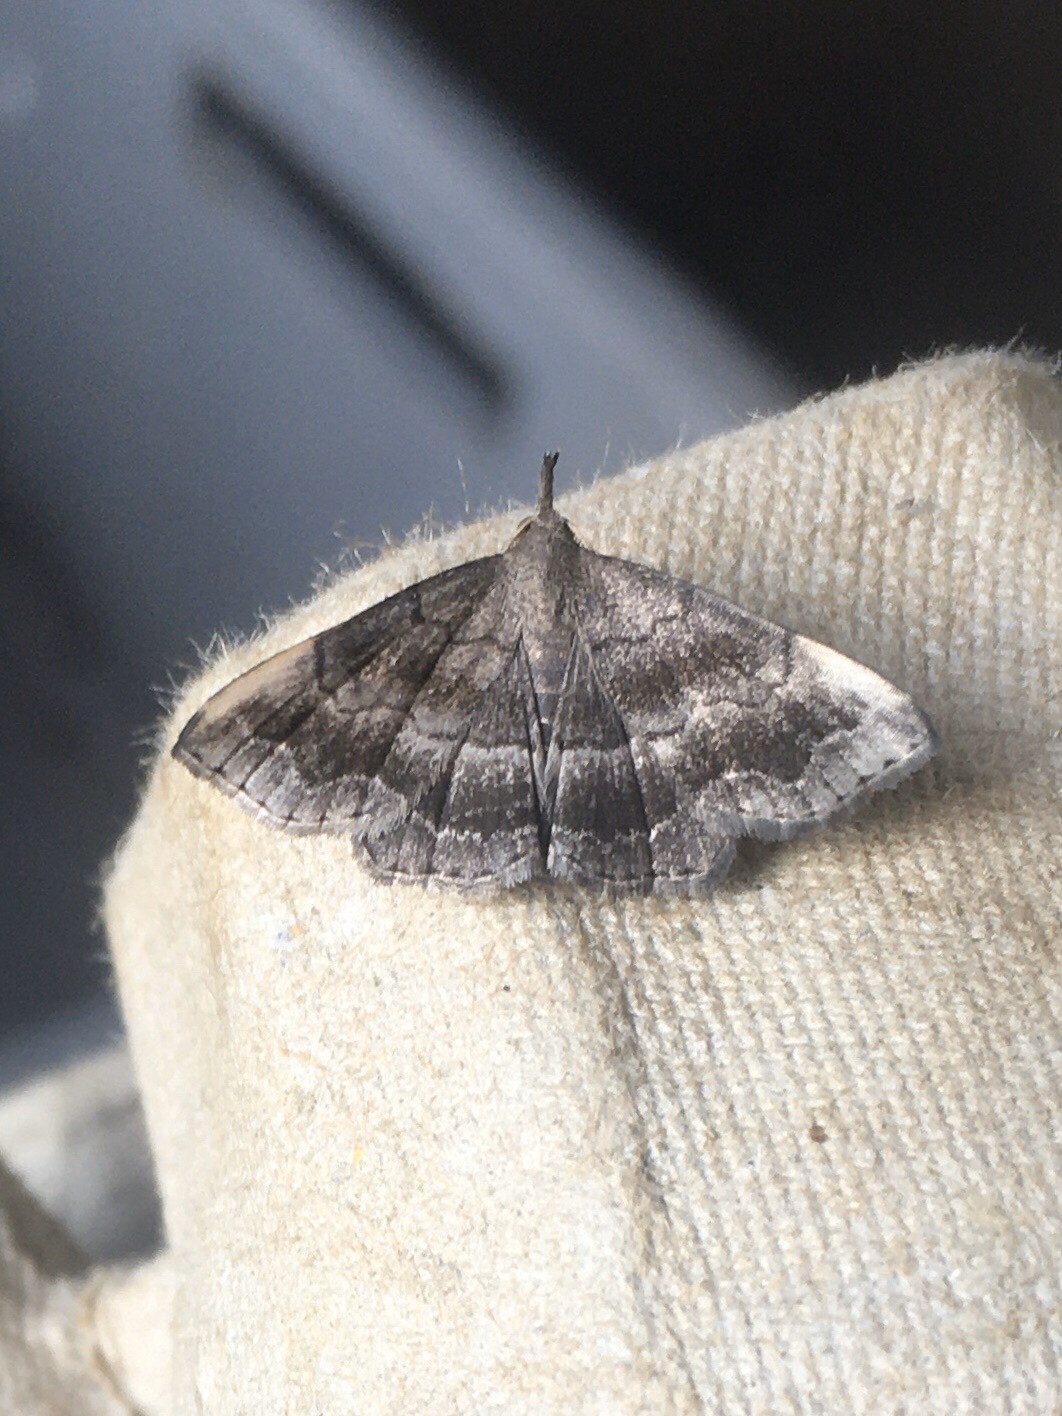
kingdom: Animalia
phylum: Arthropoda
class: Insecta
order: Lepidoptera
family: Erebidae
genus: Phalaenostola
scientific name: Phalaenostola larentioides
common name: Black-banded owlet
